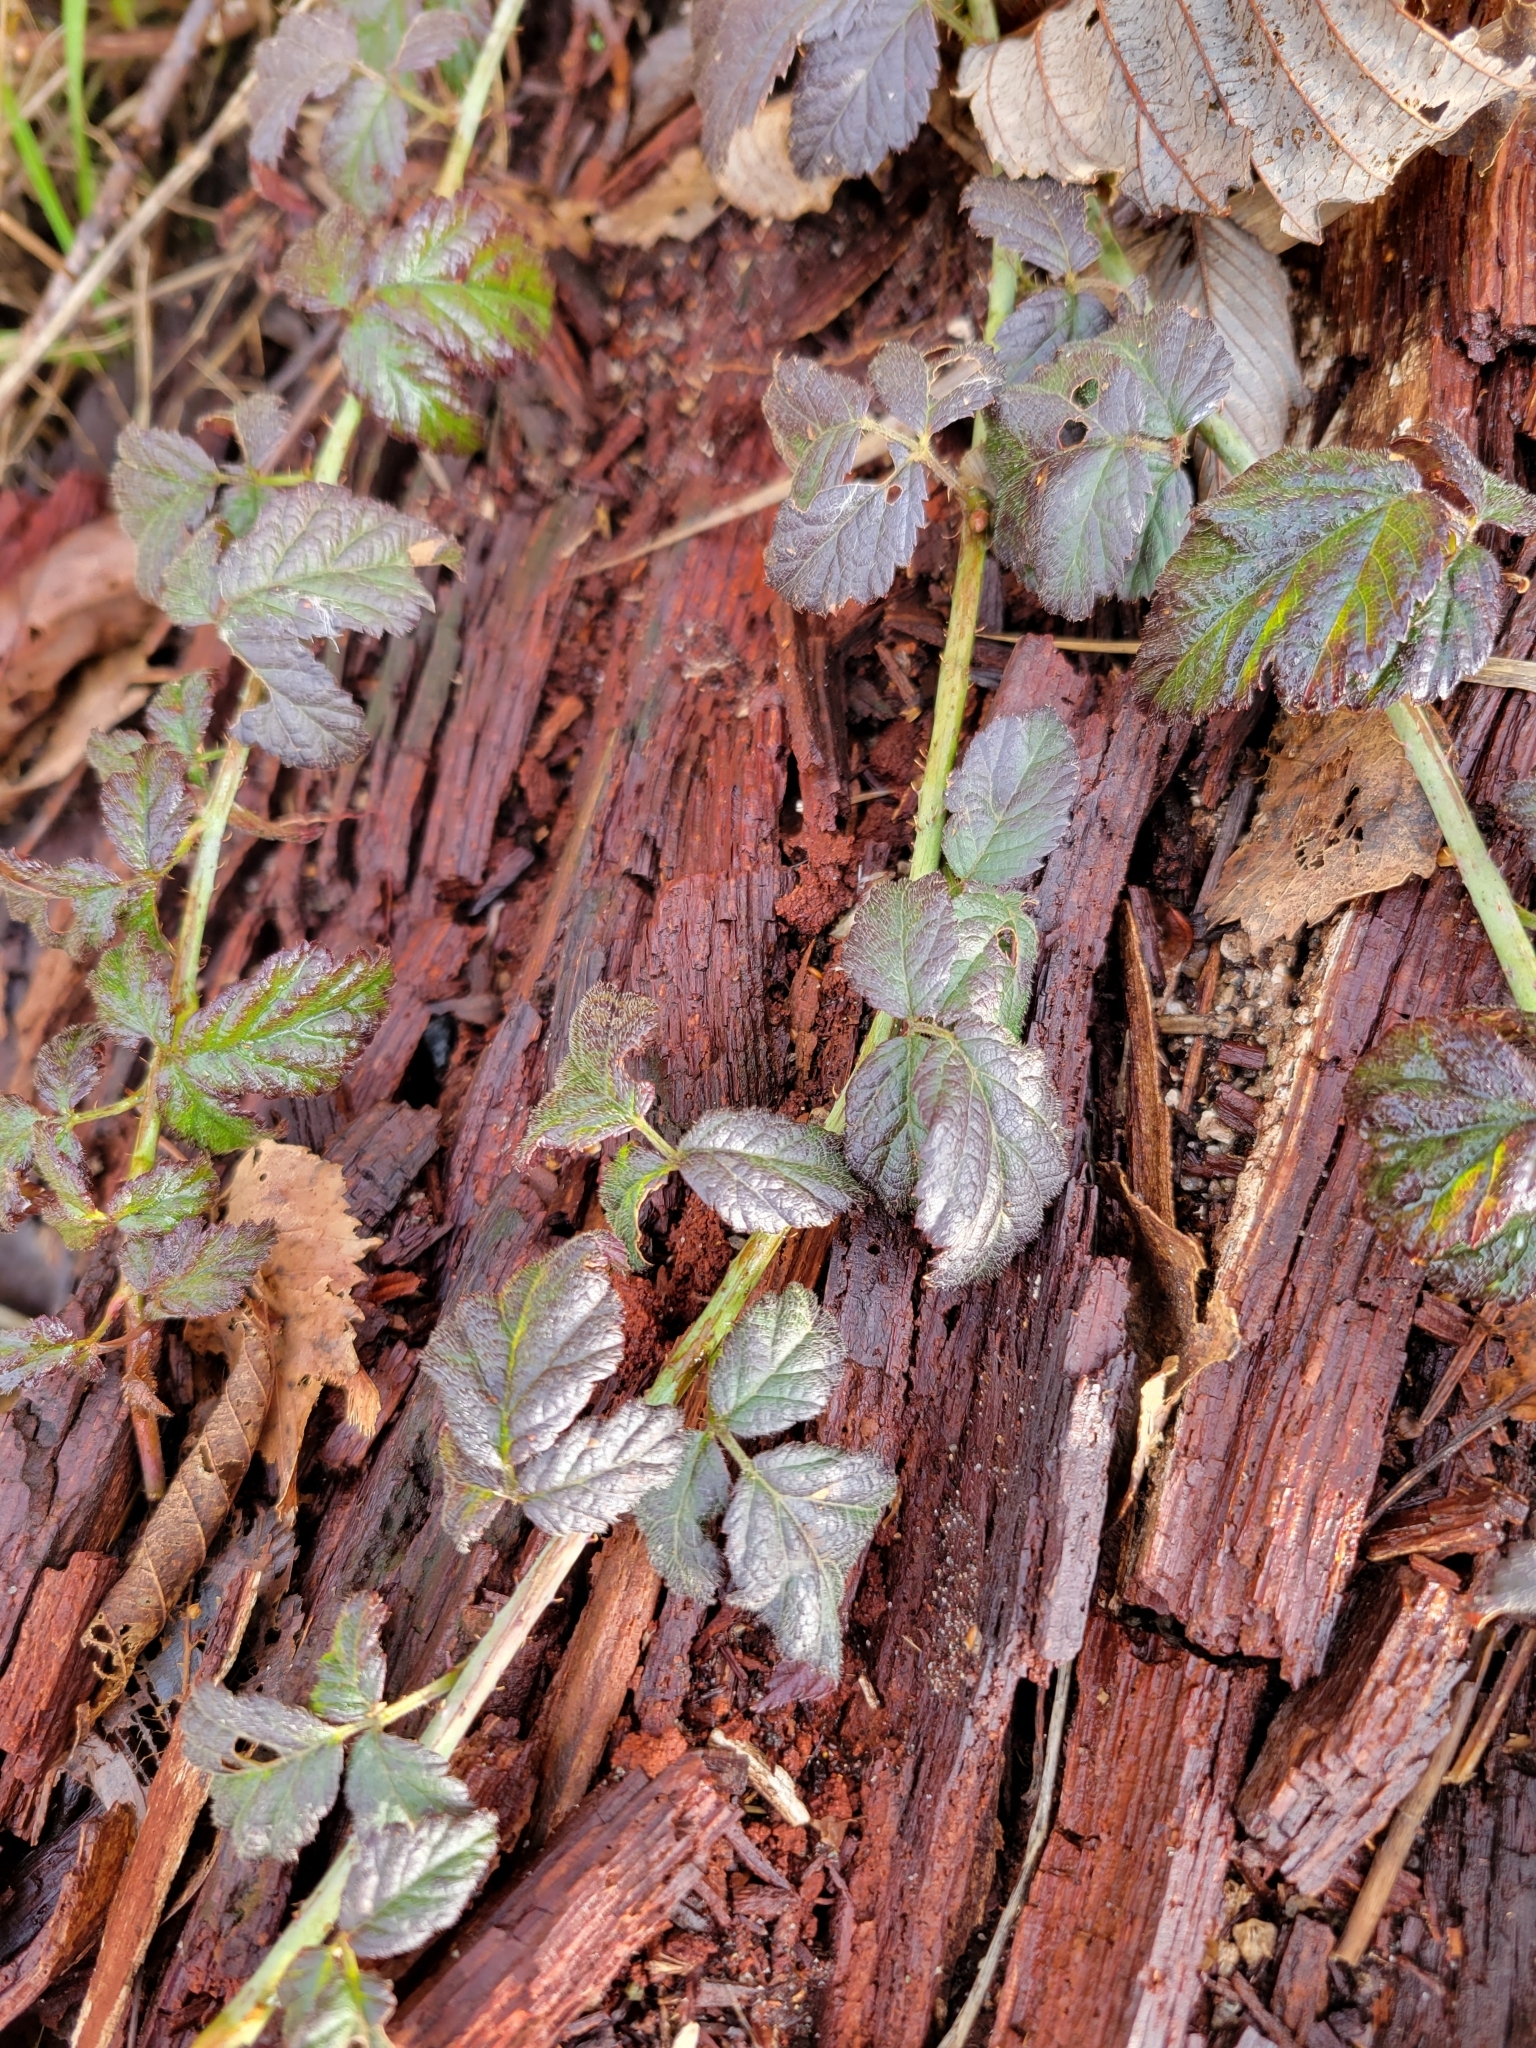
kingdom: Plantae
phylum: Tracheophyta
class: Magnoliopsida
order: Rosales
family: Rosaceae
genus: Rubus
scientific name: Rubus ursinus
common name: Pacific blackberry
